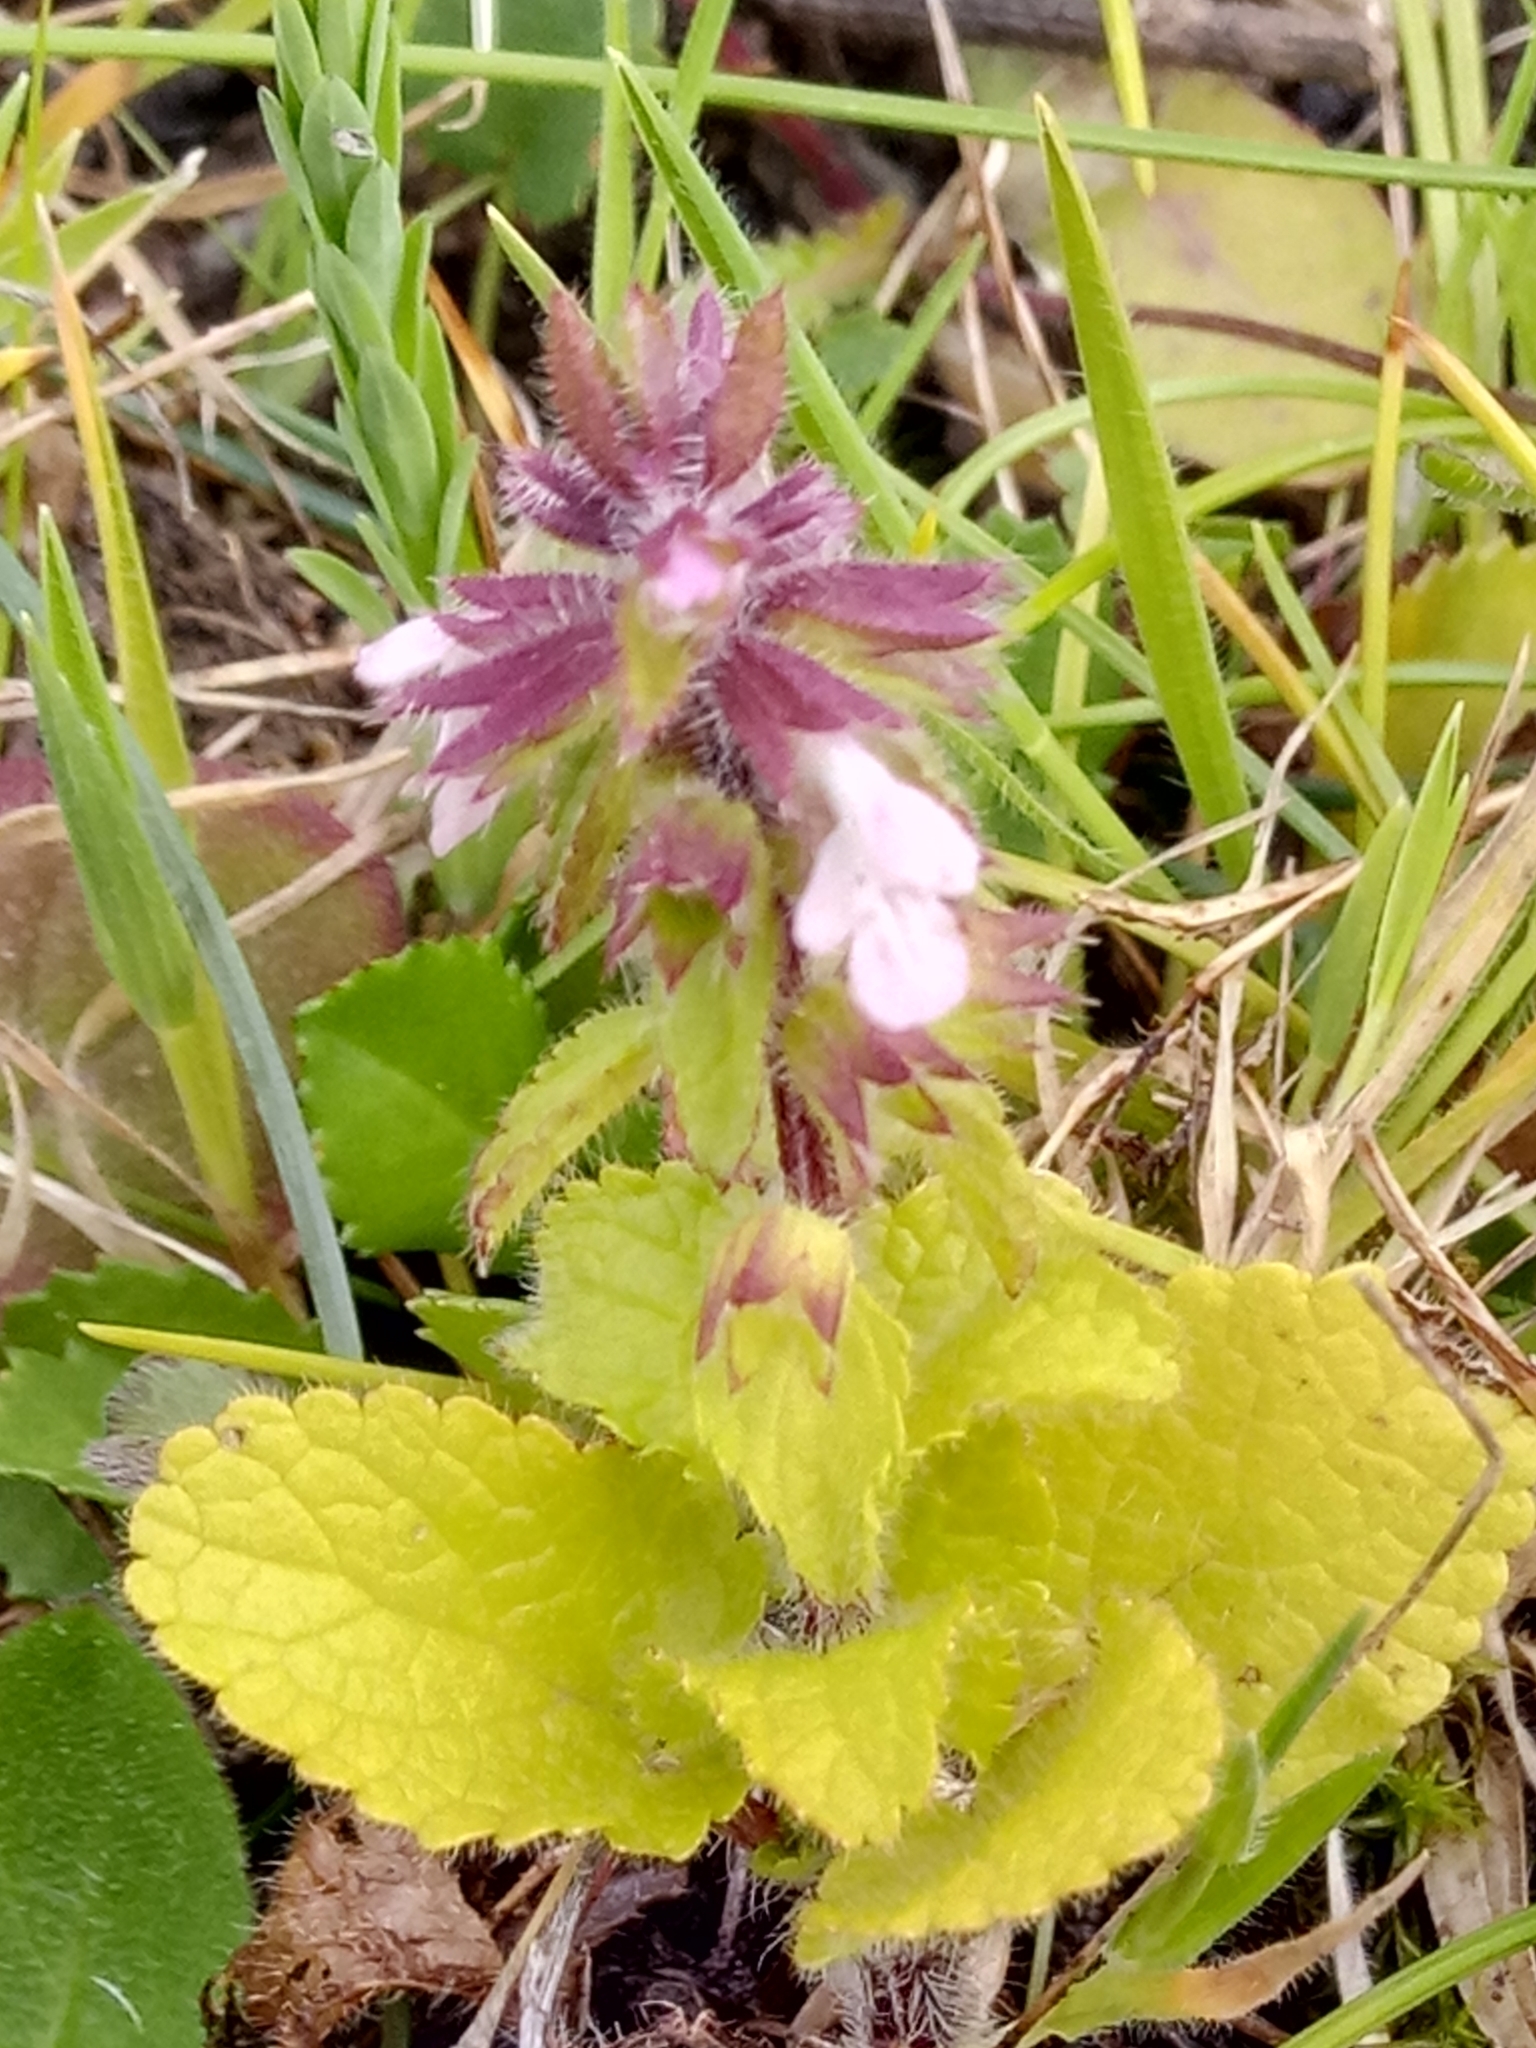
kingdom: Plantae
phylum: Tracheophyta
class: Magnoliopsida
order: Lamiales
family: Lamiaceae
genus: Stachys
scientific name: Stachys arvensis
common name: Field woundwort
